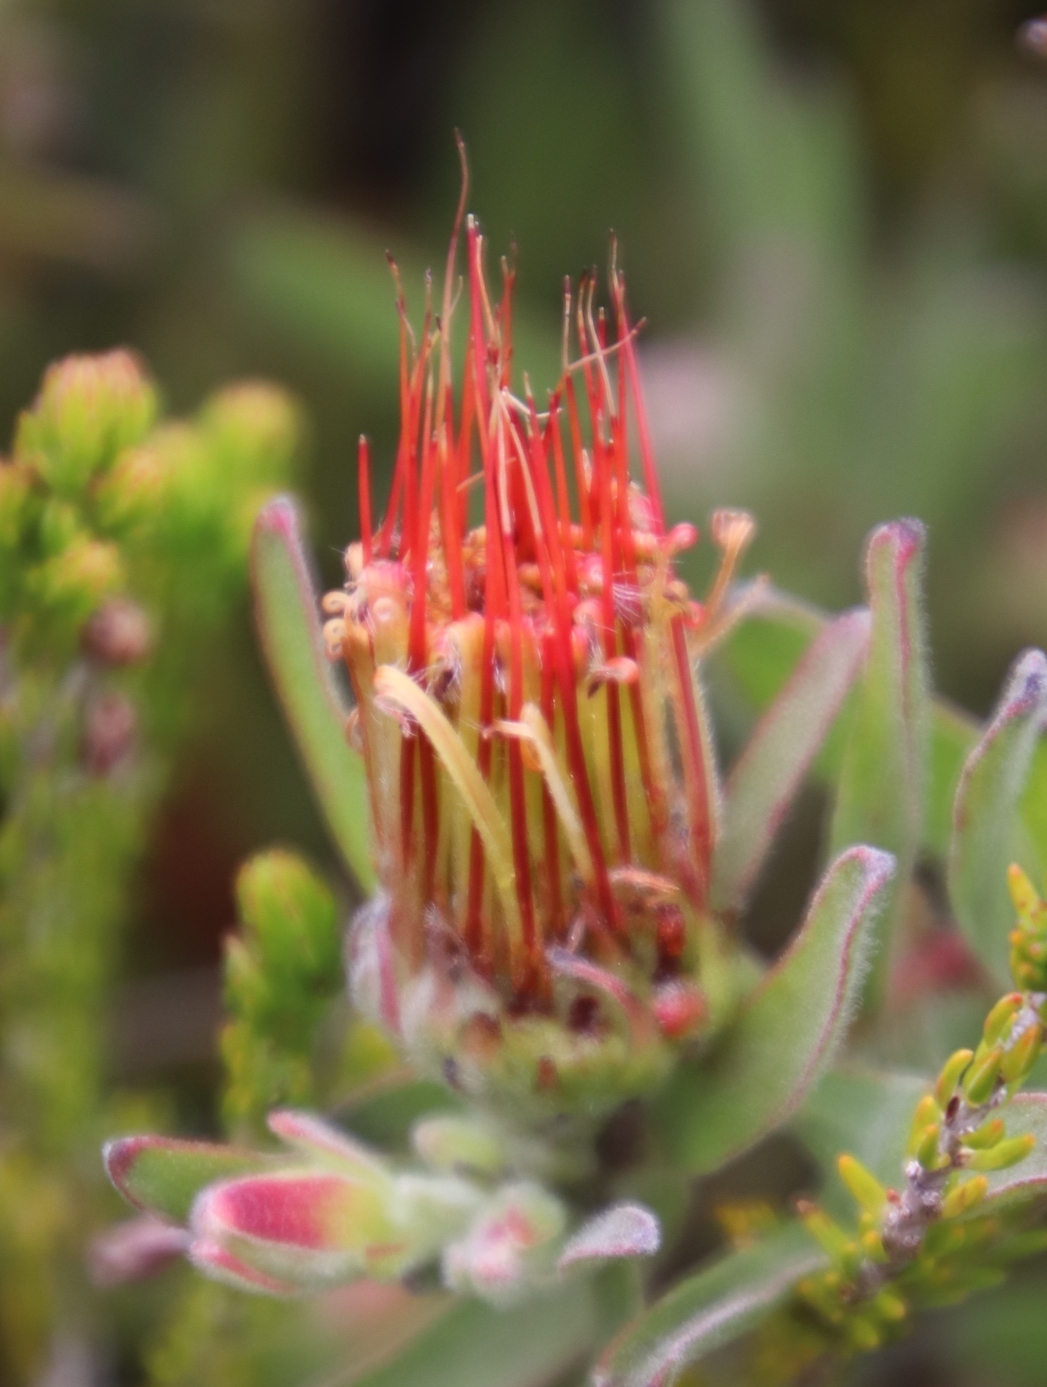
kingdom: Plantae
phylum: Tracheophyta
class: Magnoliopsida
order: Proteales
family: Proteaceae
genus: Leucospermum
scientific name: Leucospermum gracile
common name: Hermanus pincushion
